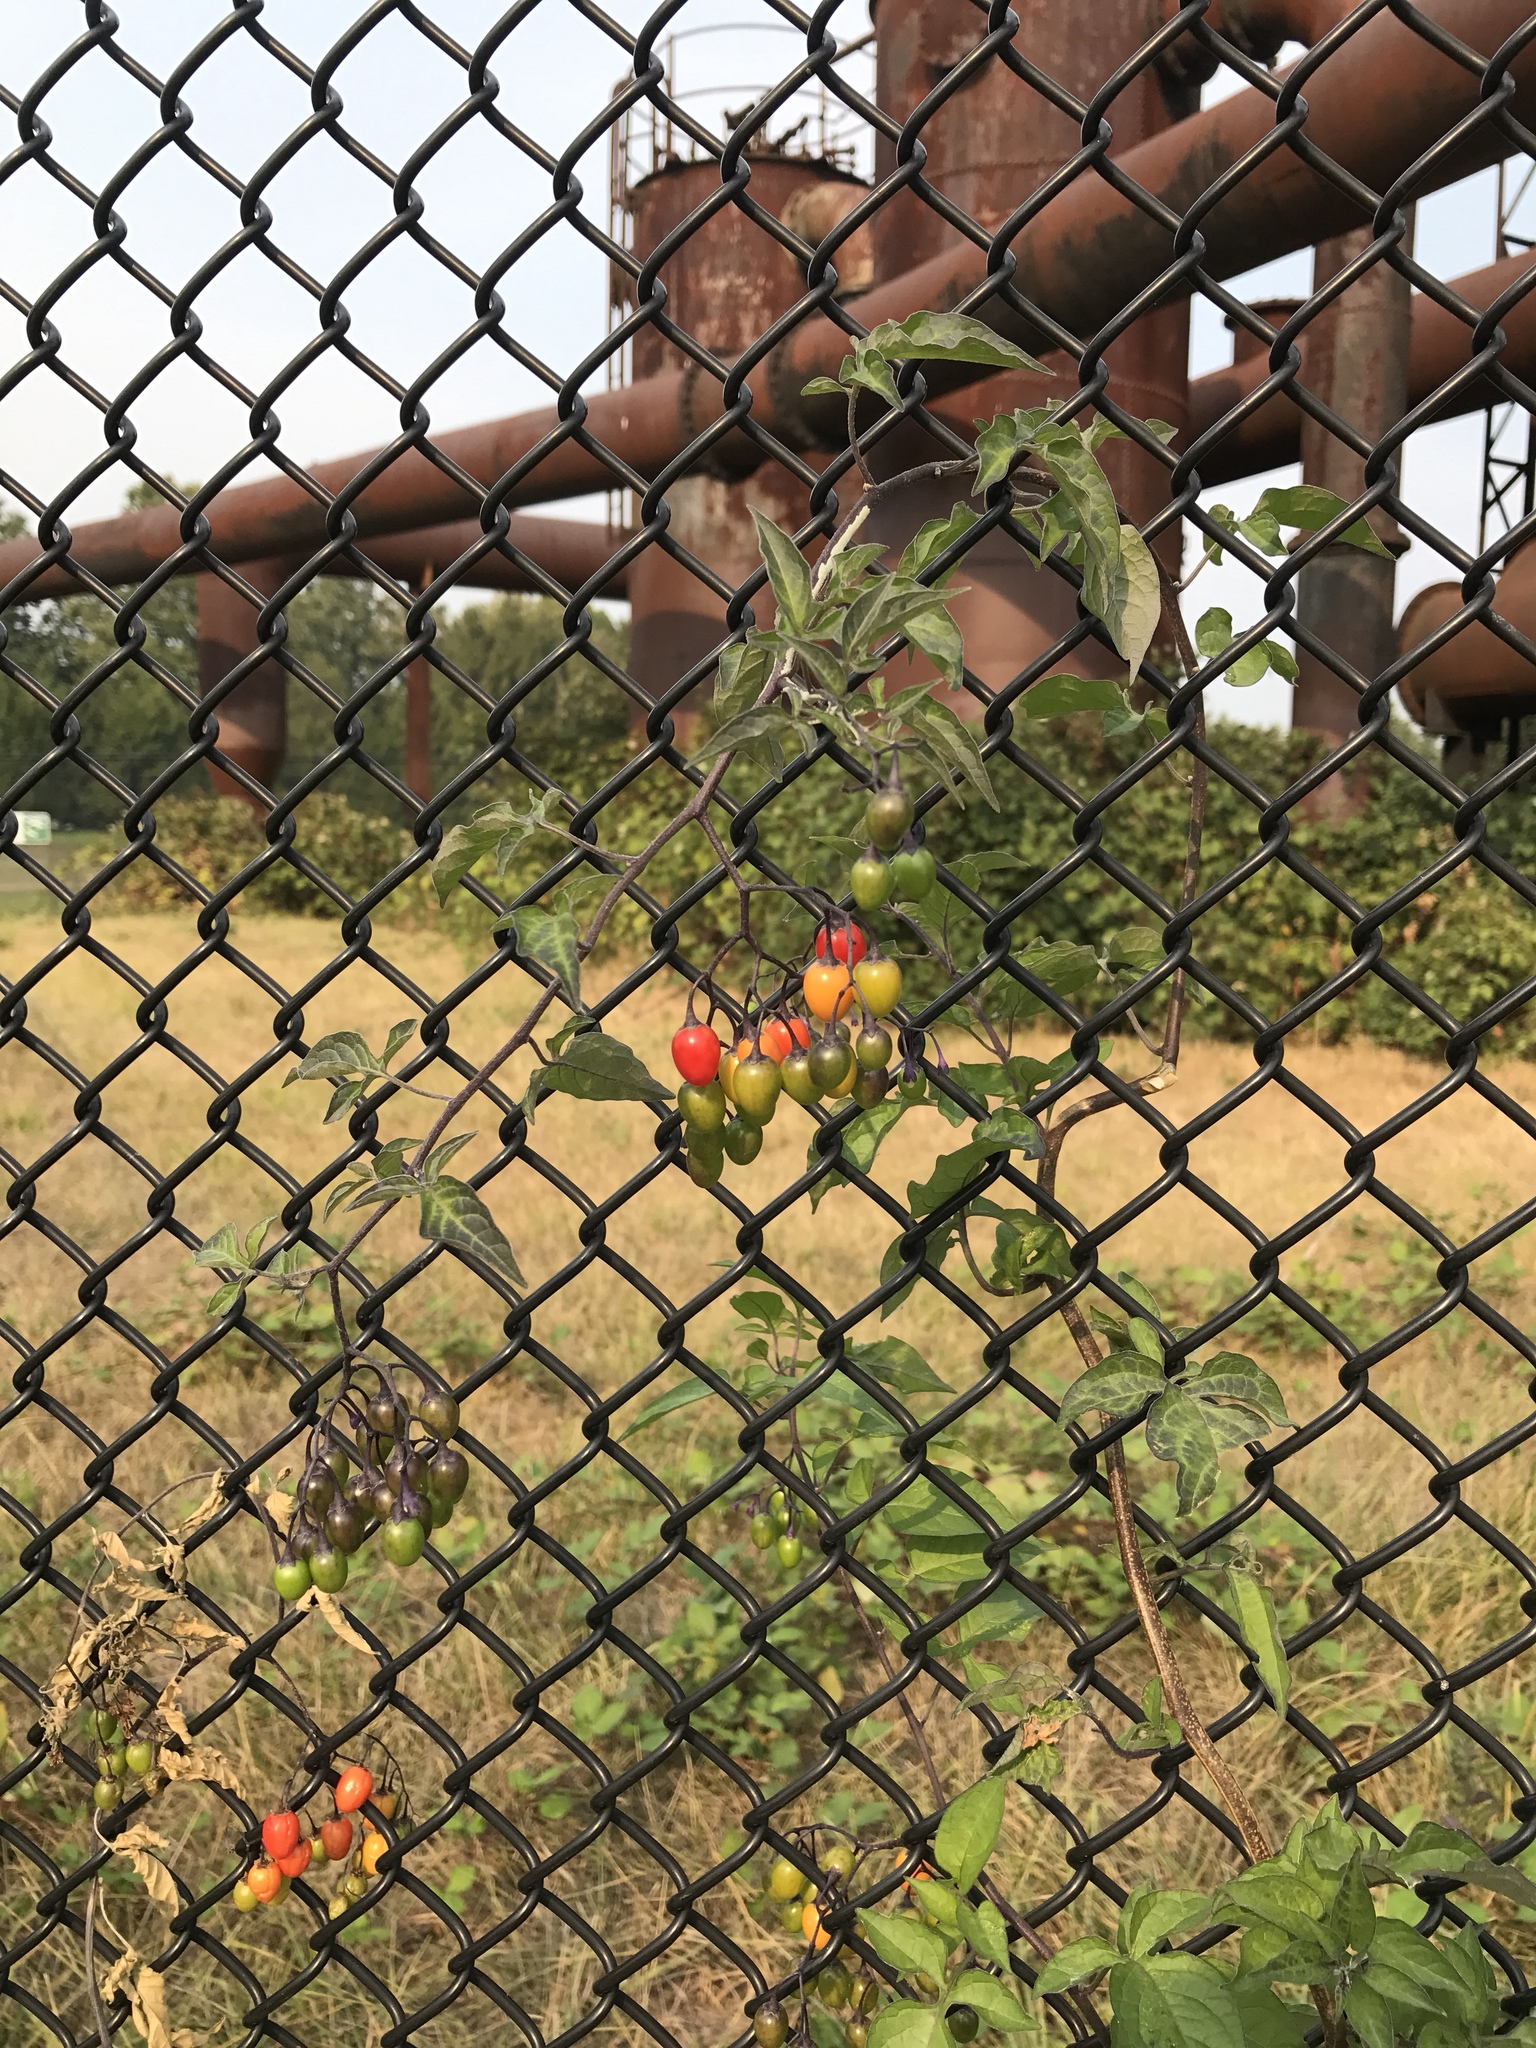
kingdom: Plantae
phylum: Tracheophyta
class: Magnoliopsida
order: Solanales
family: Solanaceae
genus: Solanum
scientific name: Solanum dulcamara
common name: Climbing nightshade
